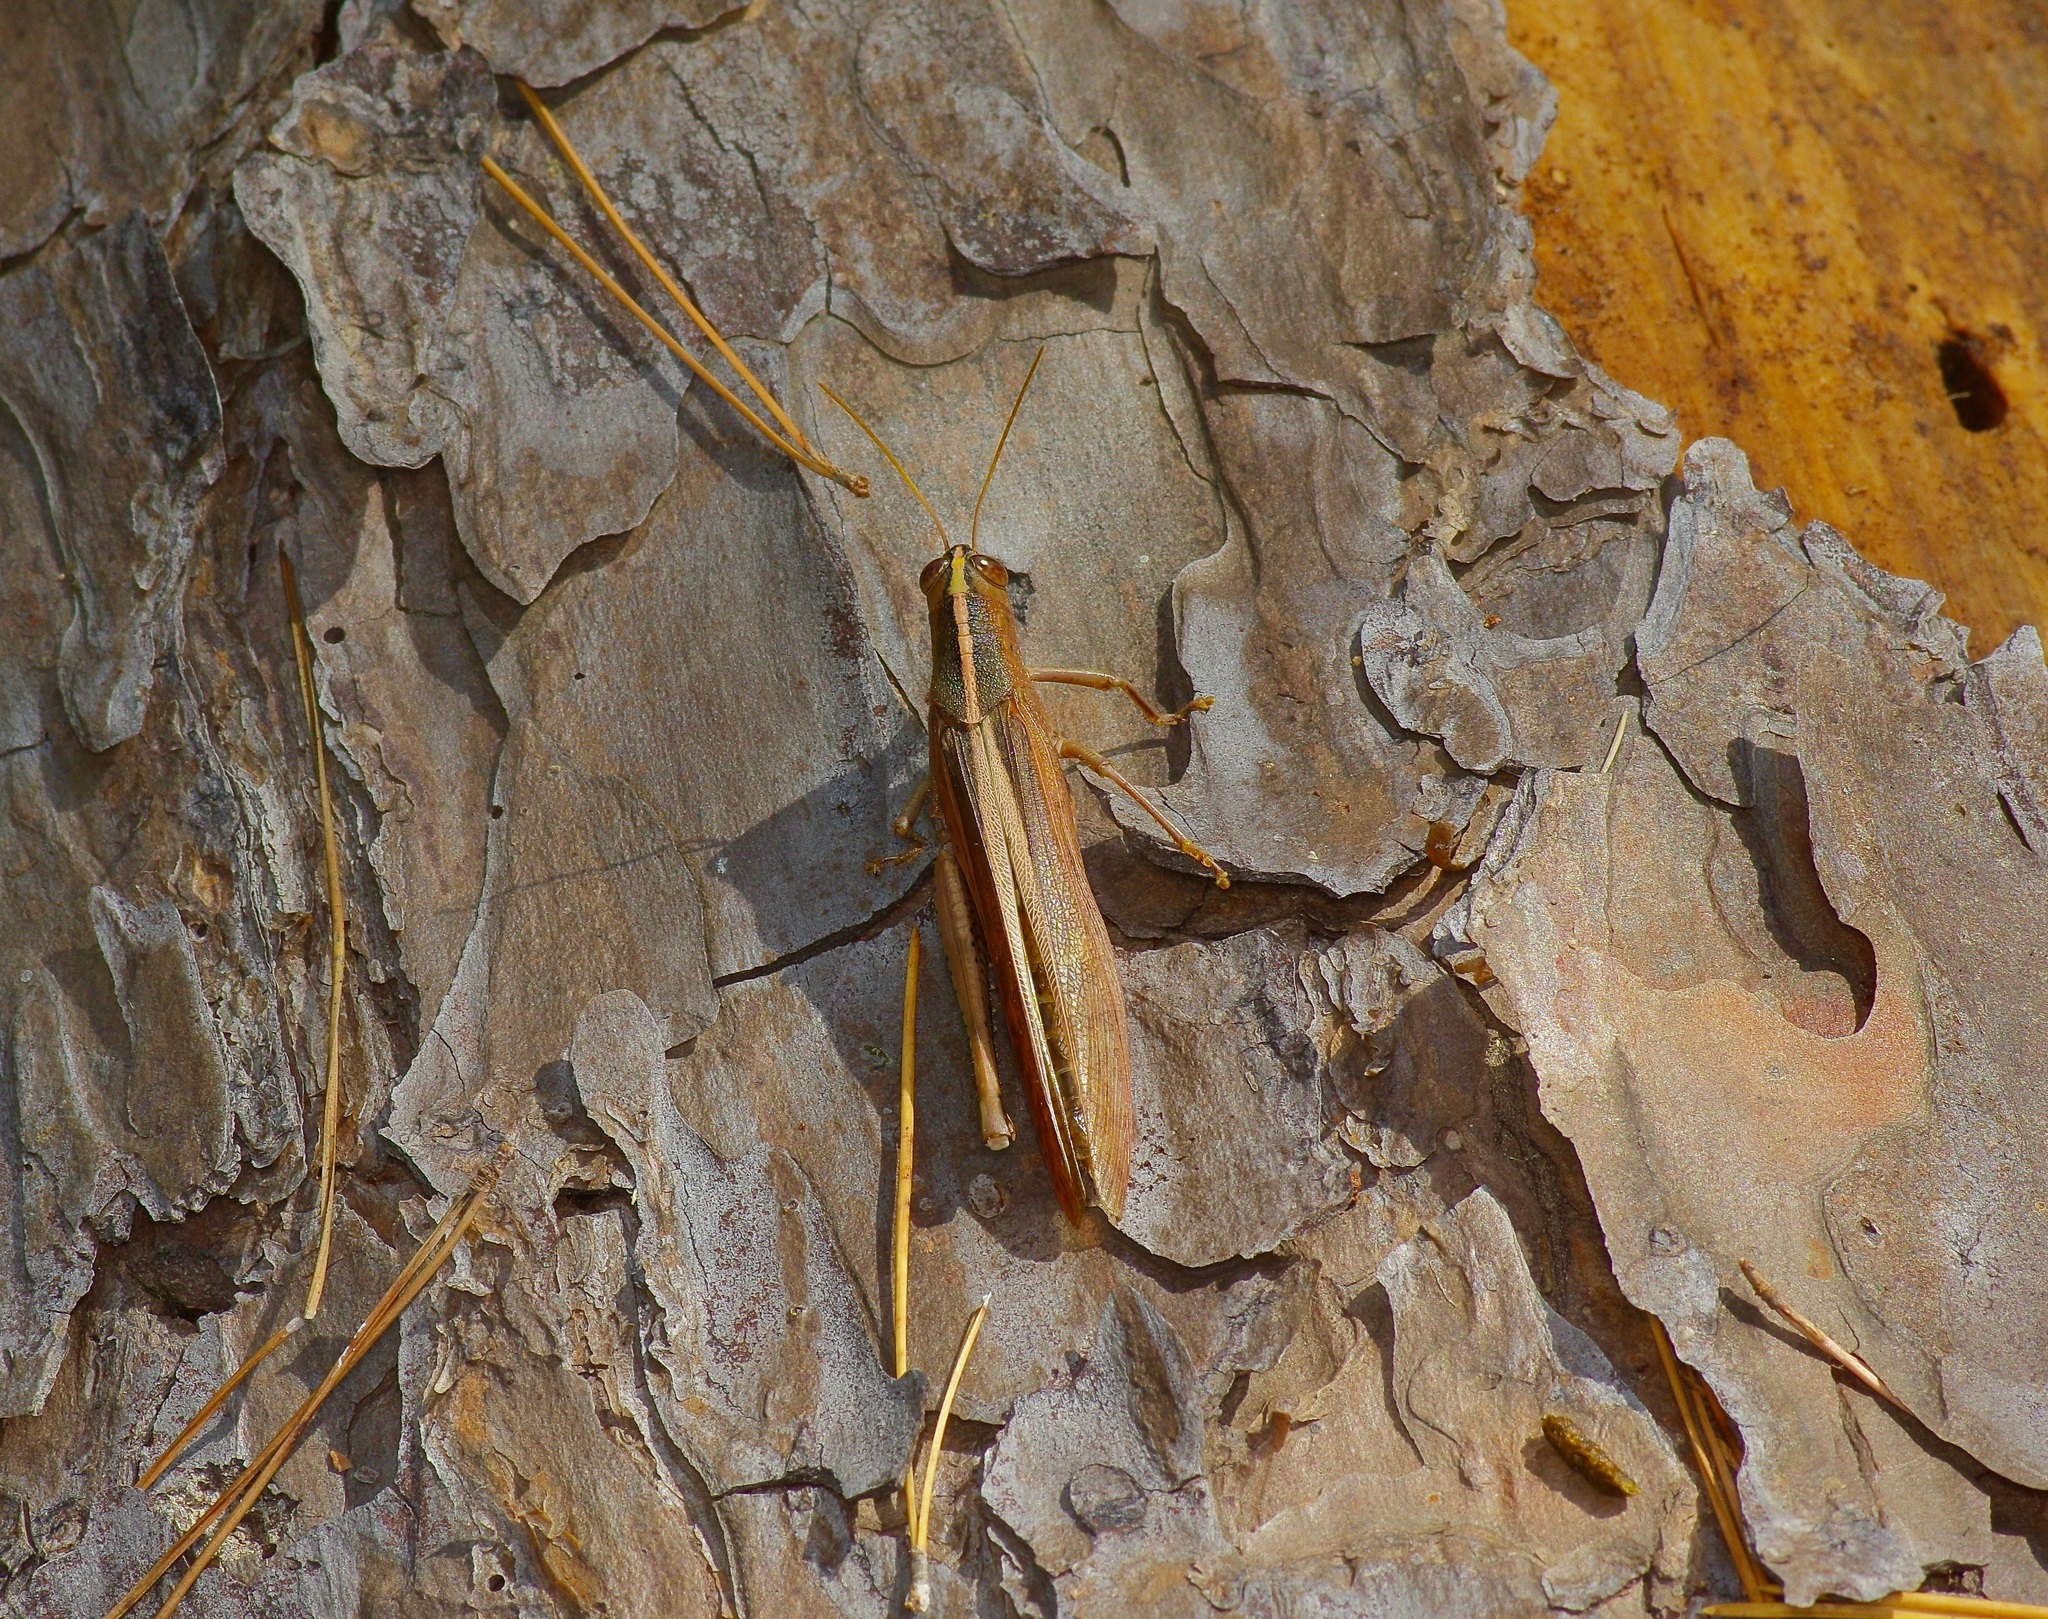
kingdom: Animalia
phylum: Arthropoda
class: Insecta
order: Orthoptera
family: Acrididae
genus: Schistocerca
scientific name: Schistocerca lineata
